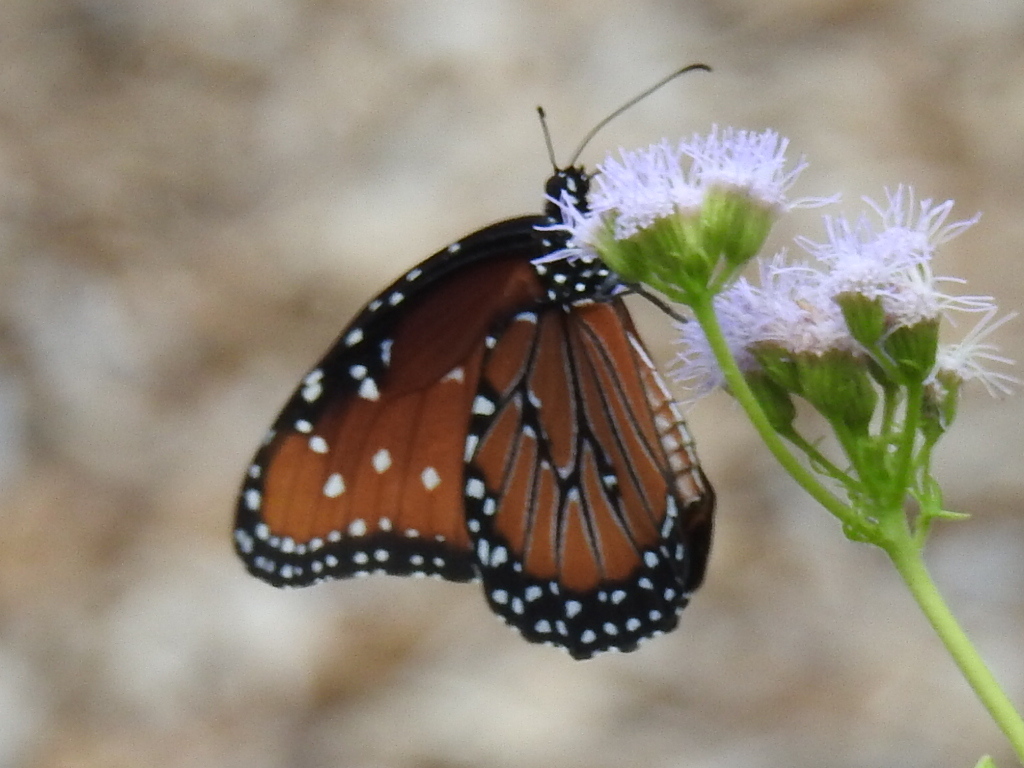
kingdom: Animalia
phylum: Arthropoda
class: Insecta
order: Lepidoptera
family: Nymphalidae
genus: Danaus
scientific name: Danaus gilippus
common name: Queen
